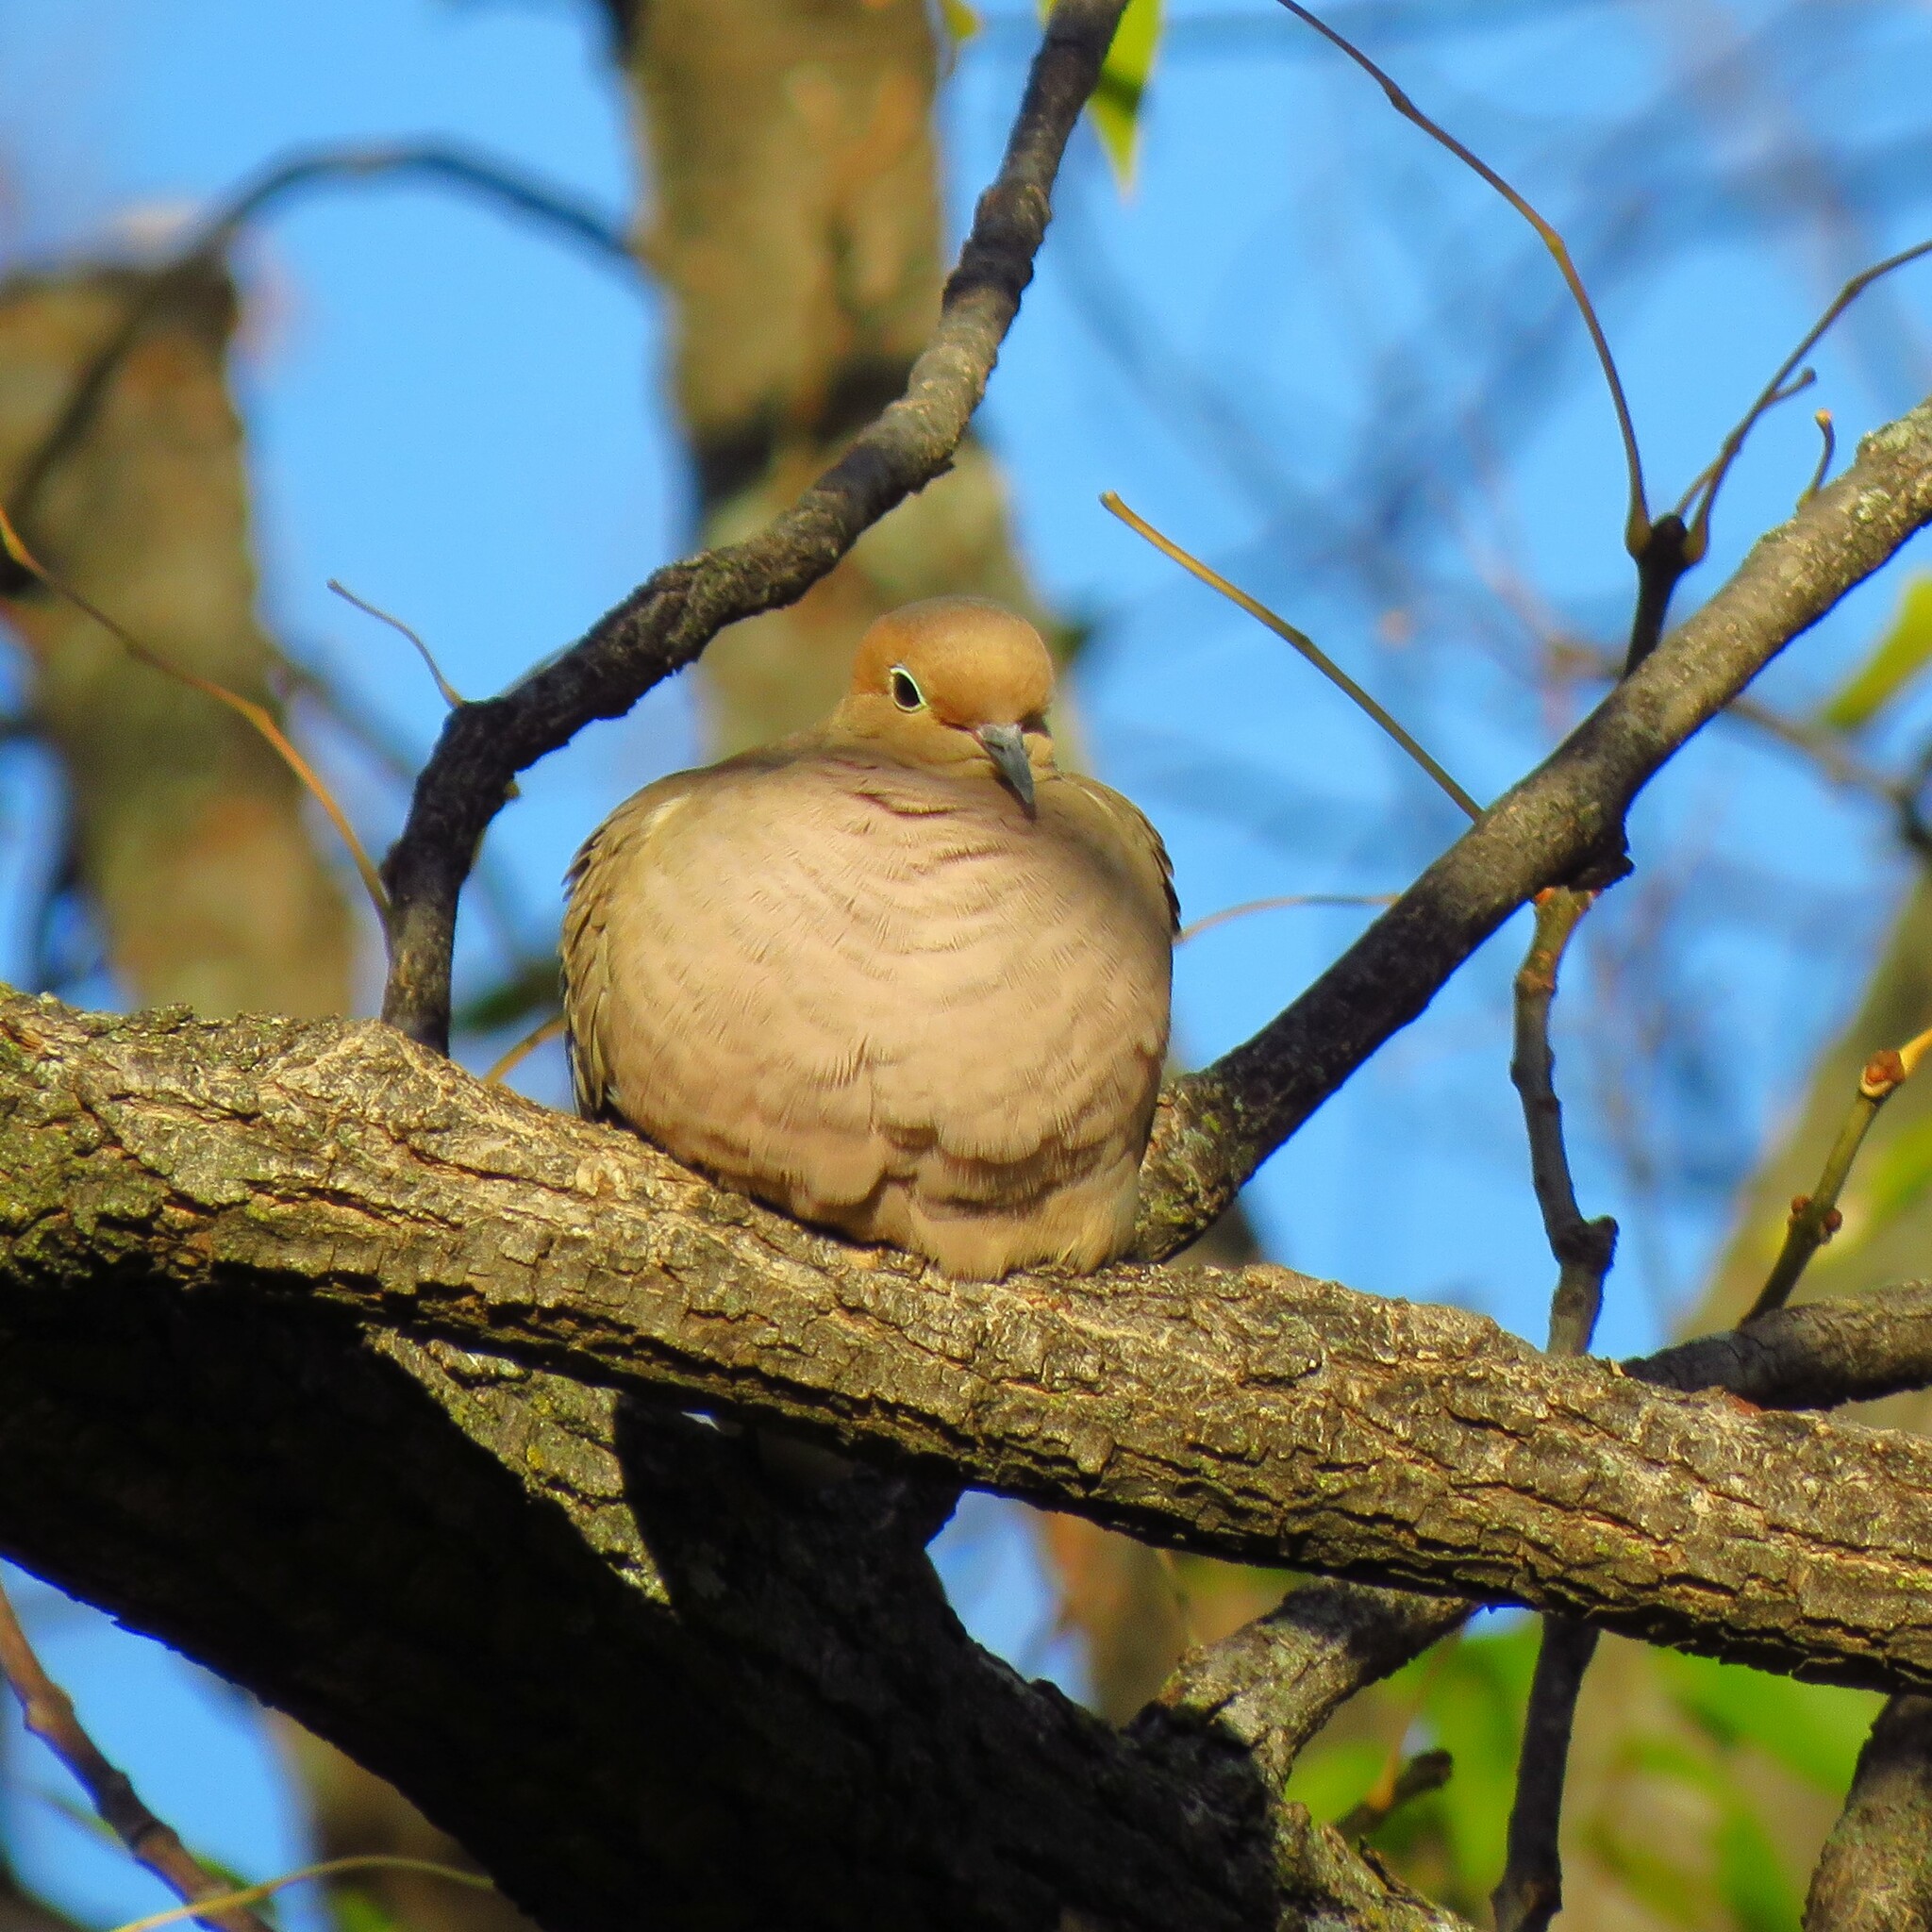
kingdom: Animalia
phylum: Chordata
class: Aves
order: Columbiformes
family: Columbidae
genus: Zenaida
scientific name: Zenaida macroura
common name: Mourning dove
